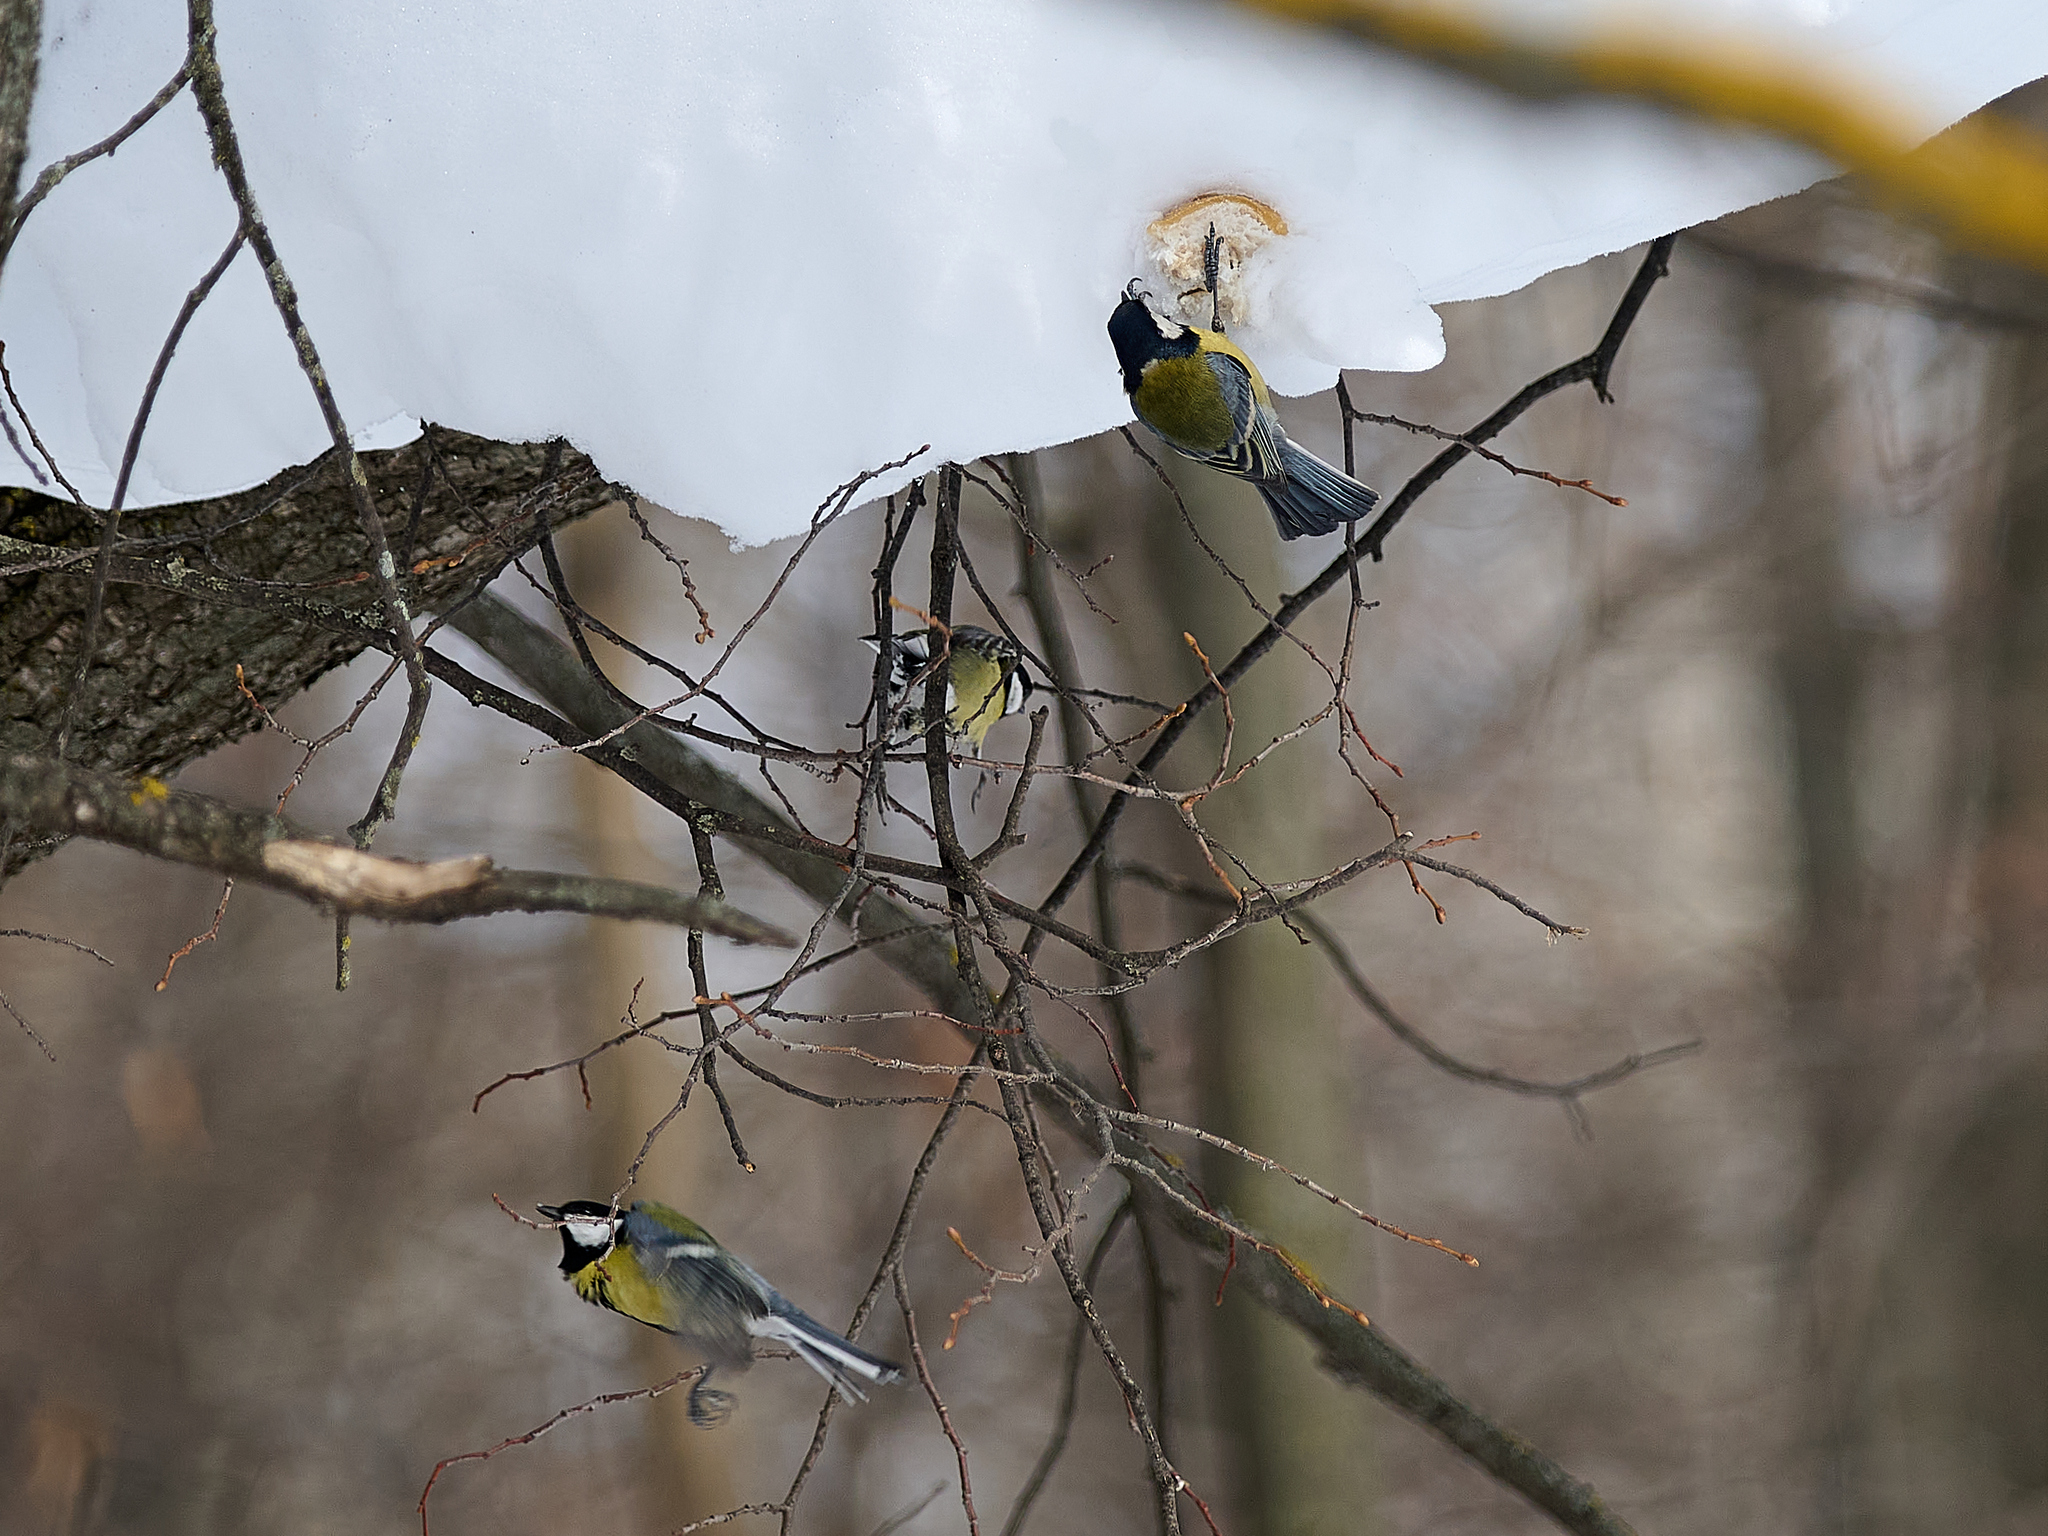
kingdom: Animalia
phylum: Chordata
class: Aves
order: Passeriformes
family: Paridae
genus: Parus
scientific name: Parus major
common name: Great tit
